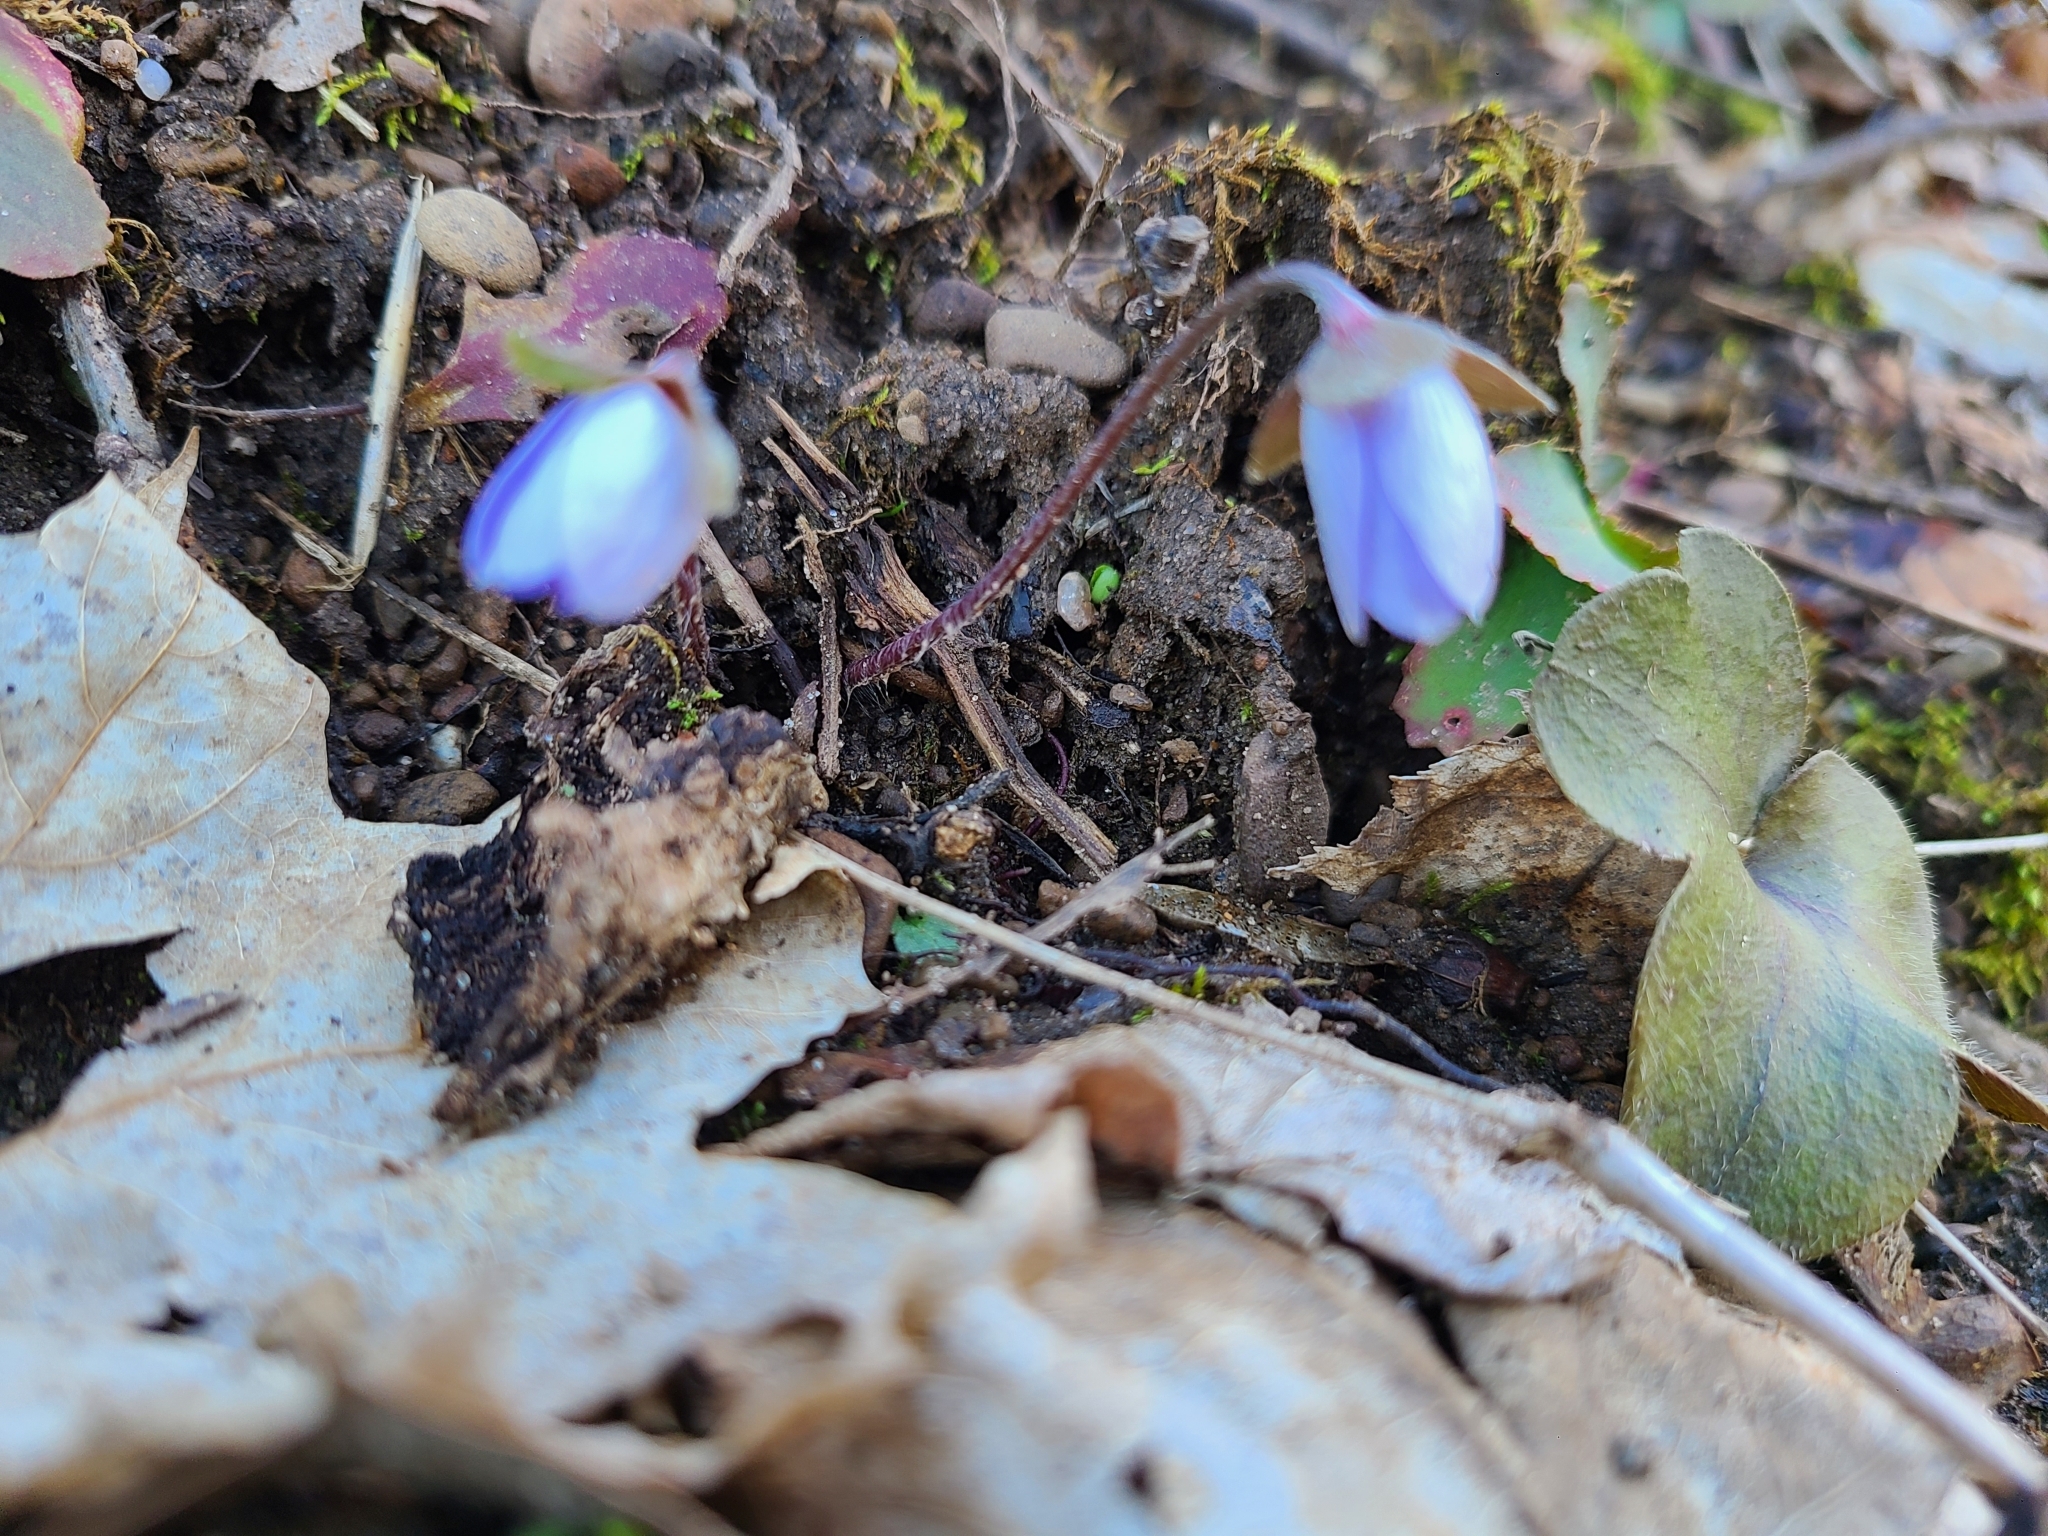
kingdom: Plantae
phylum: Tracheophyta
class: Magnoliopsida
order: Ranunculales
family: Ranunculaceae
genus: Hepatica
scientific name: Hepatica americana
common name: American hepatica
